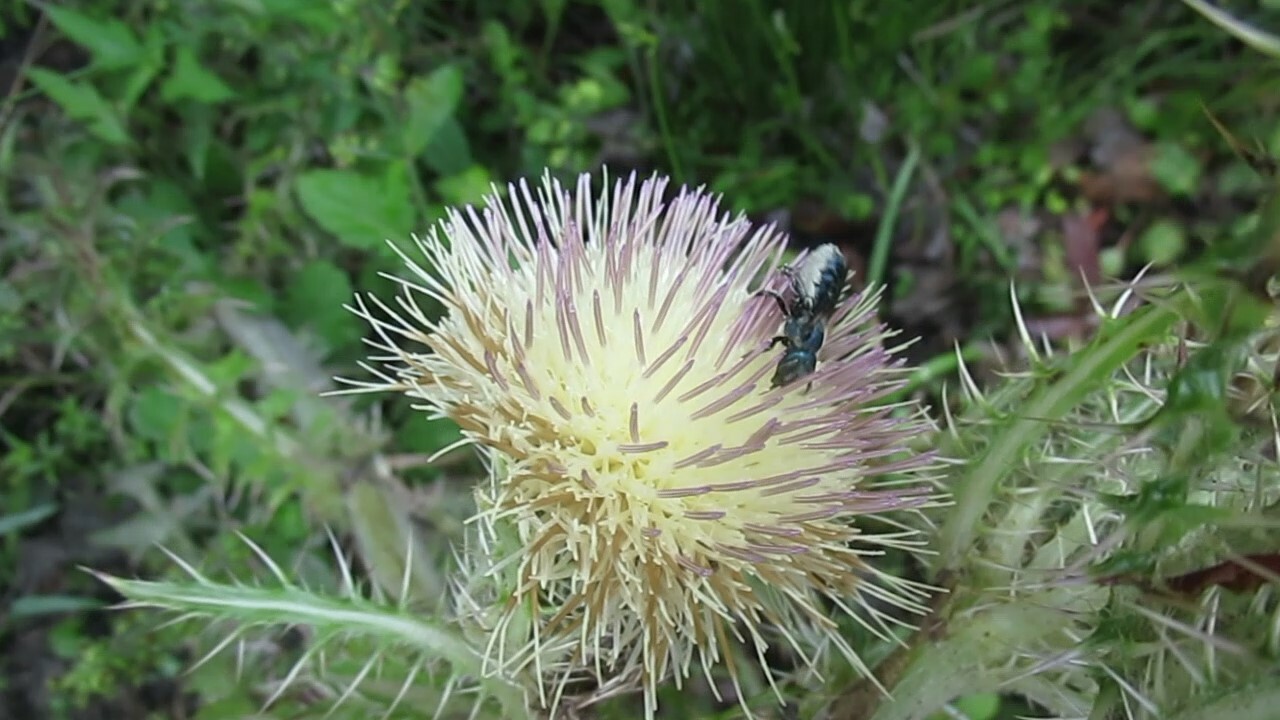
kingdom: Animalia
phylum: Arthropoda
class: Insecta
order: Hymenoptera
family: Megachilidae
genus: Osmia
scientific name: Osmia chalybea
